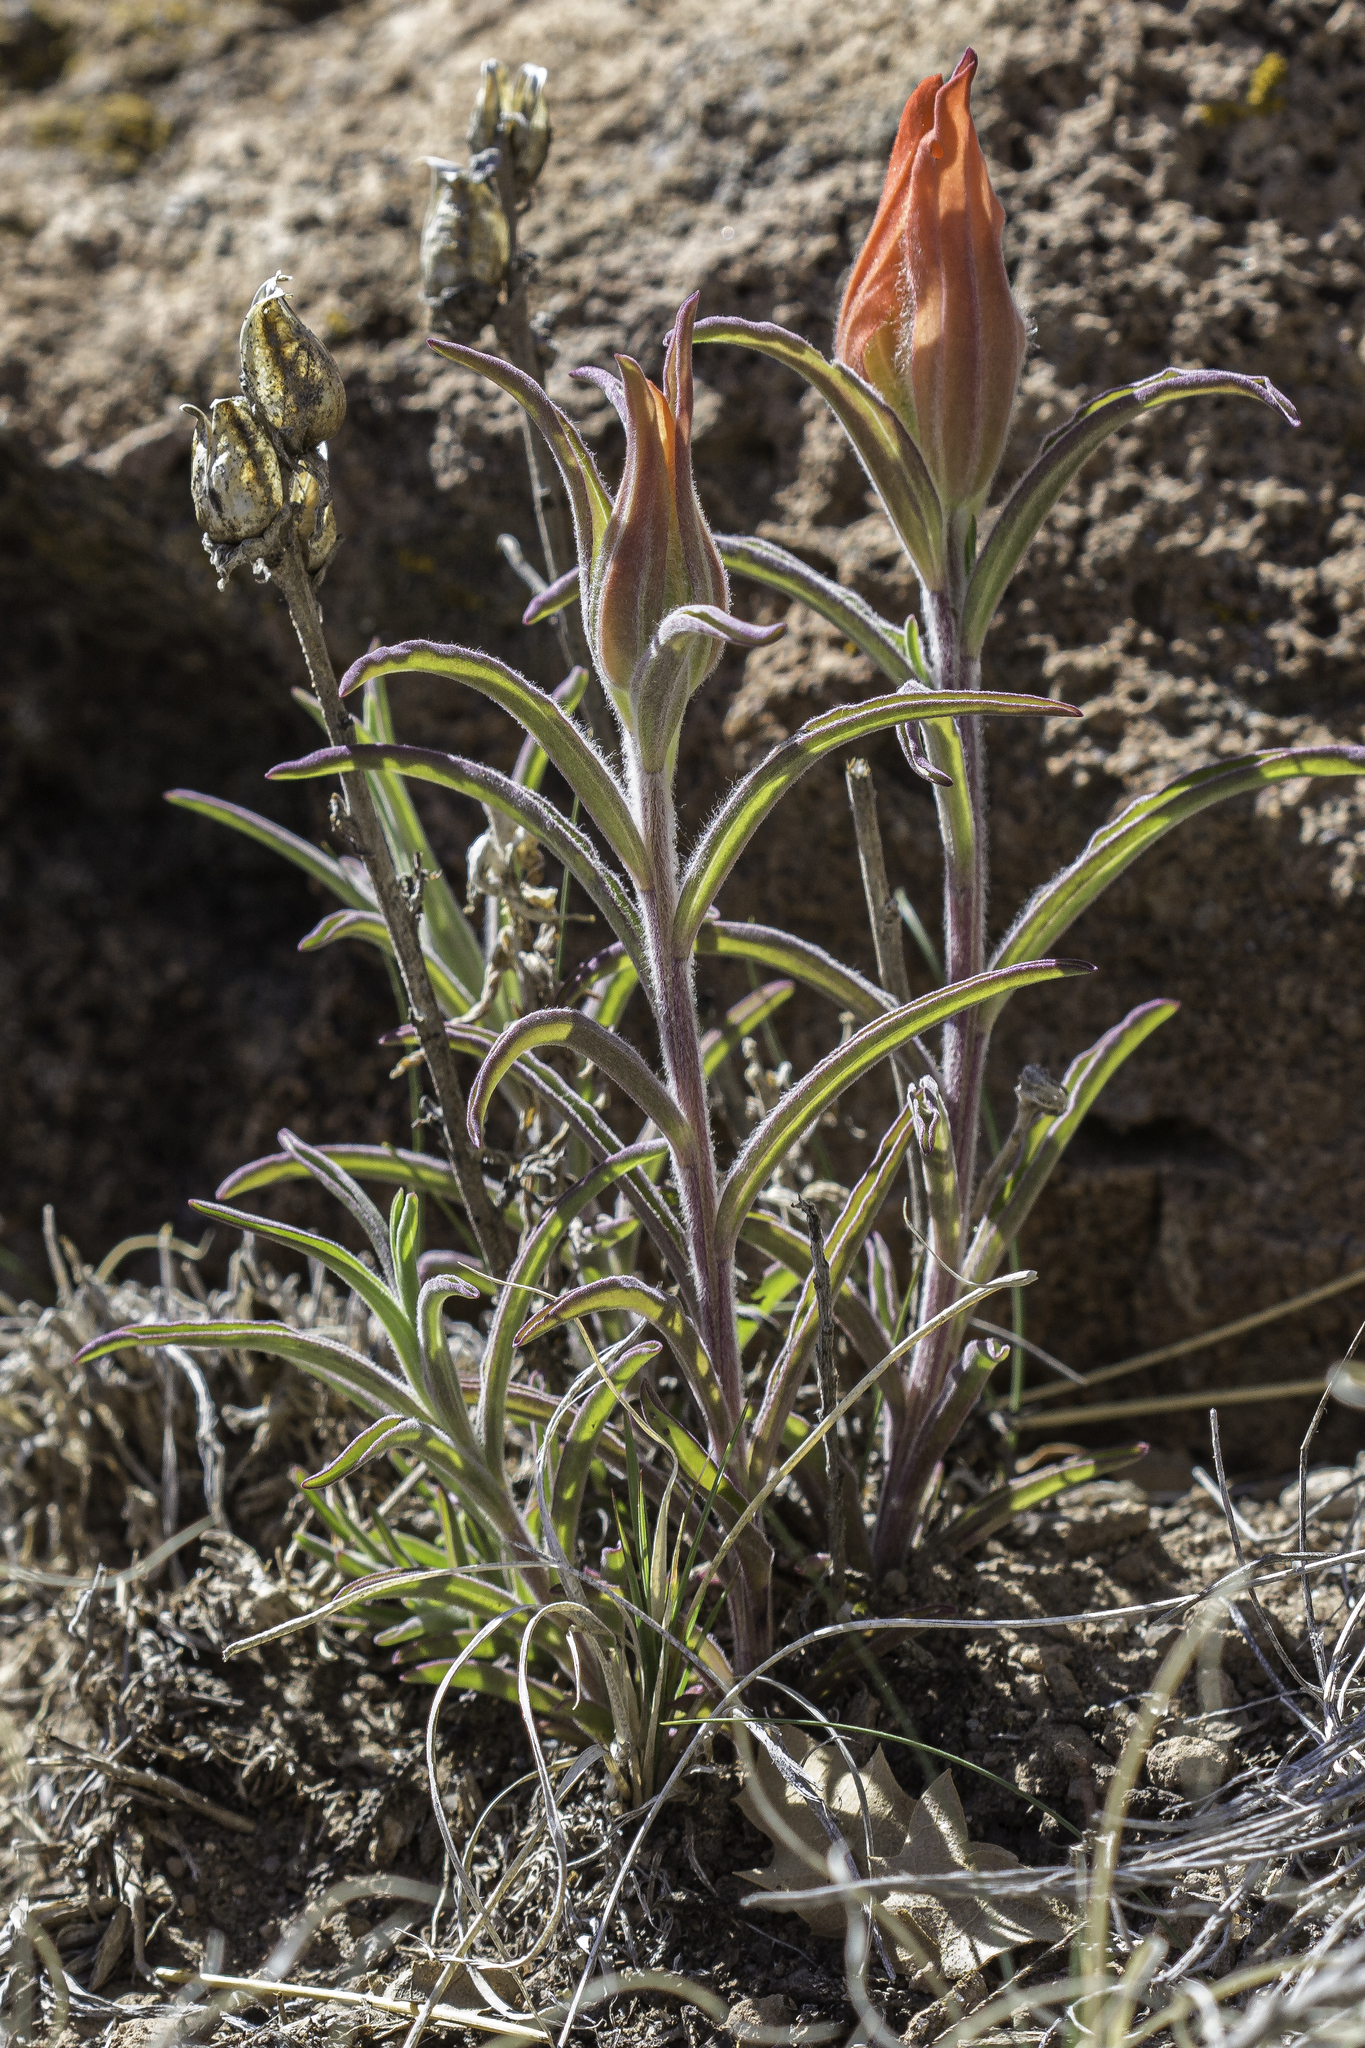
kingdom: Plantae
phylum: Tracheophyta
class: Magnoliopsida
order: Lamiales
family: Orobanchaceae
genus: Castilleja
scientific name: Castilleja integra
